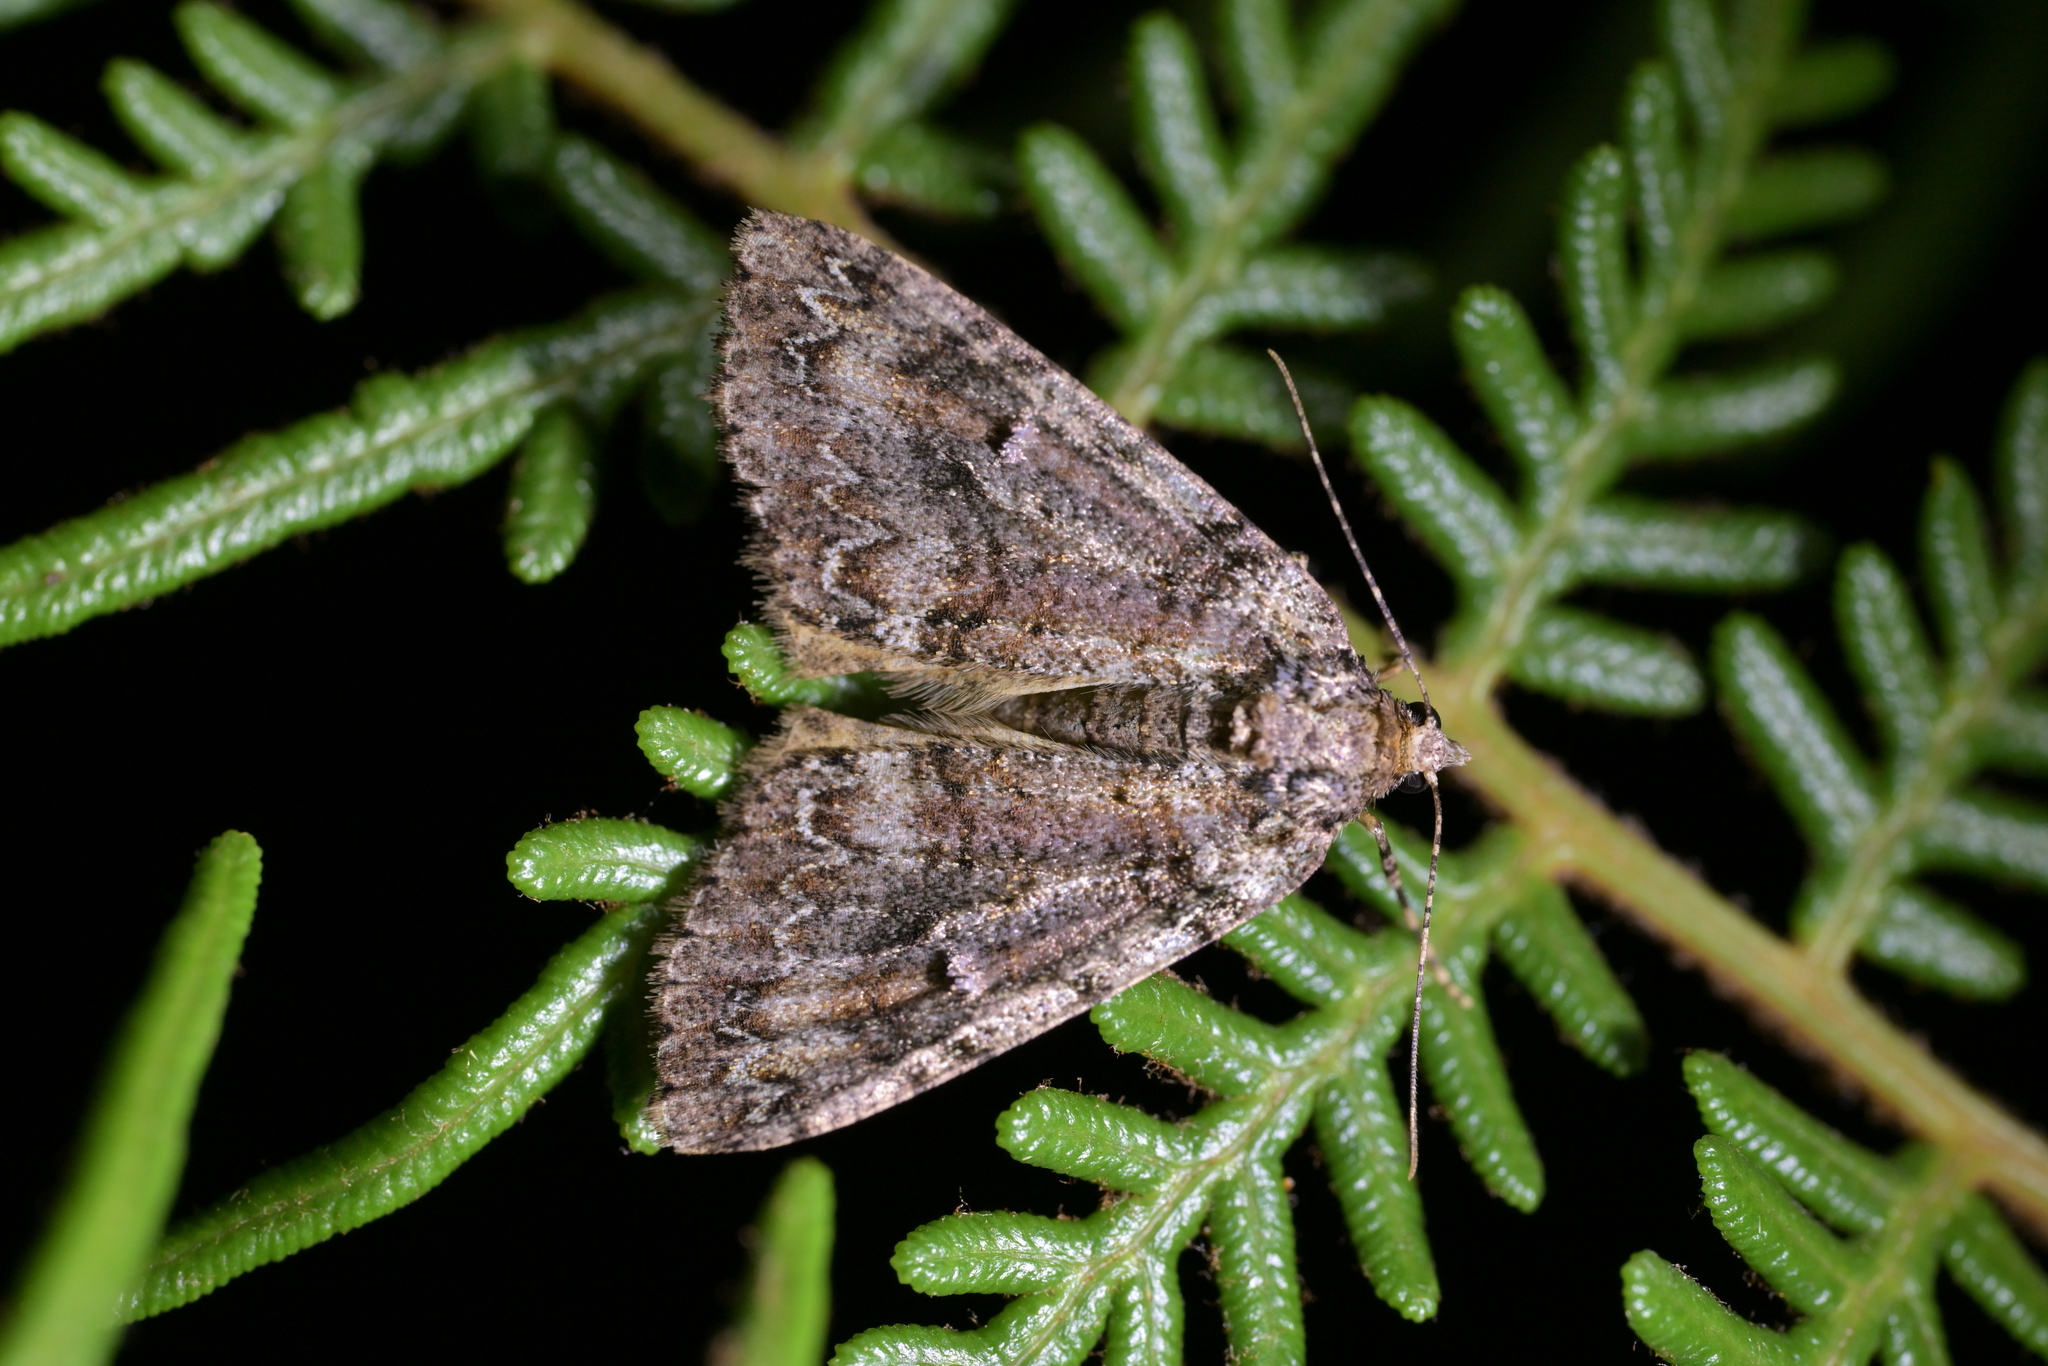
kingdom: Animalia
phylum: Arthropoda
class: Insecta
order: Lepidoptera
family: Geometridae
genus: Pseudocoremia
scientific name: Pseudocoremia suavis
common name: Common forest looper
